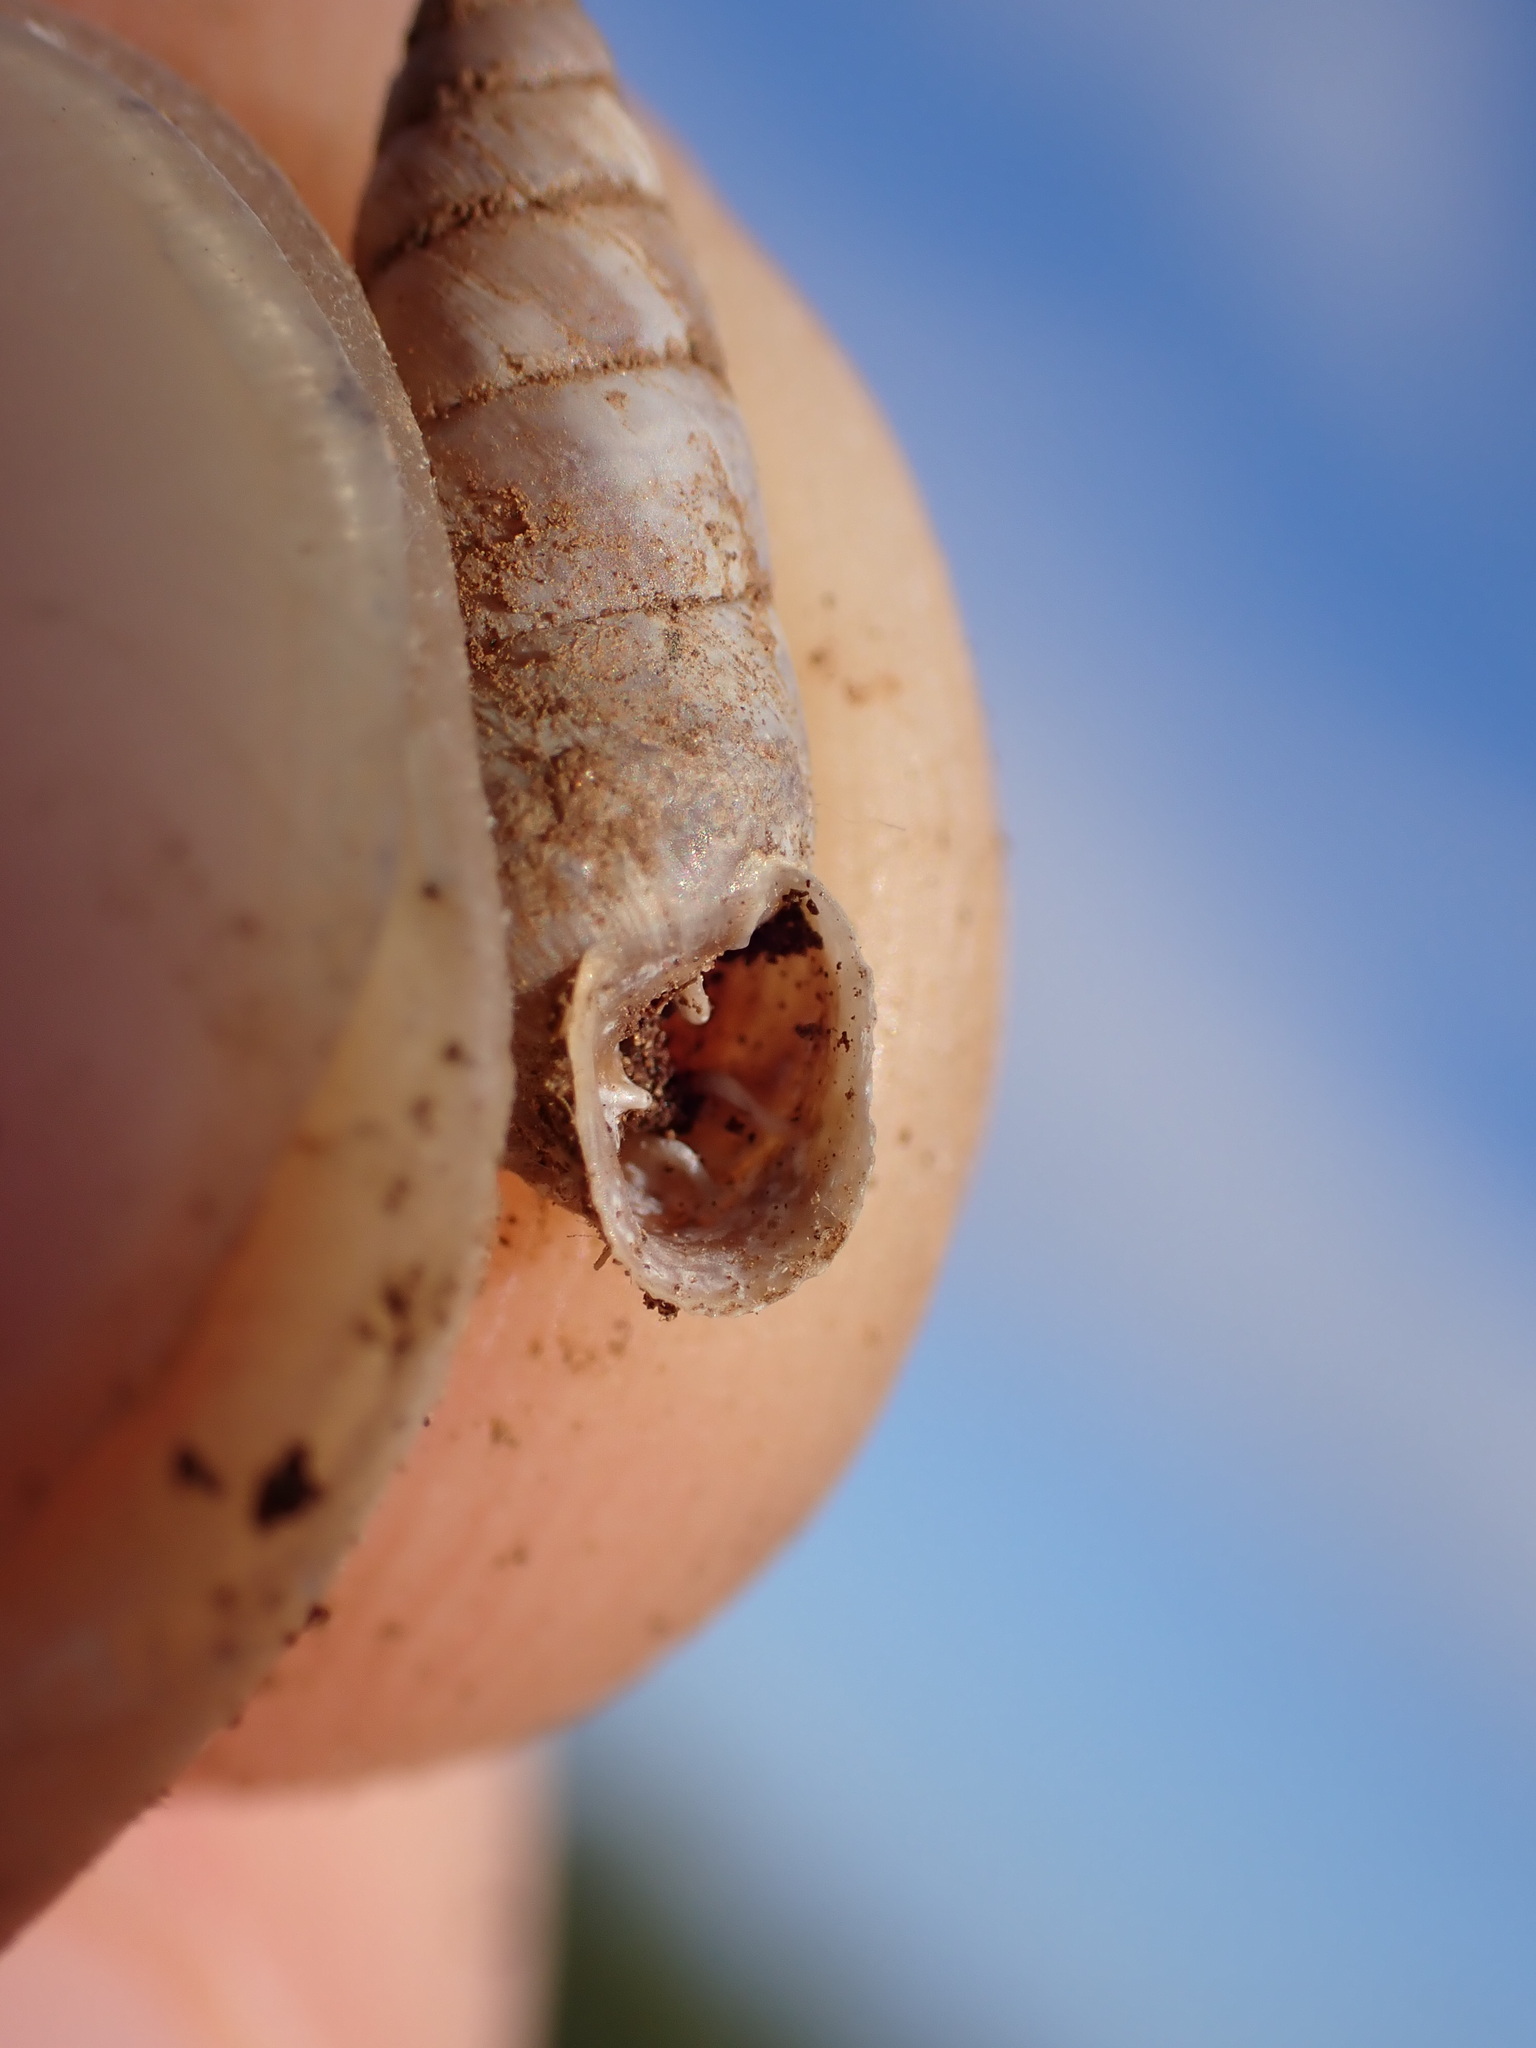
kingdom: Animalia
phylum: Mollusca
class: Gastropoda
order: Stylommatophora
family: Chondrinidae
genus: Solatopupa
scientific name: Solatopupa similis
